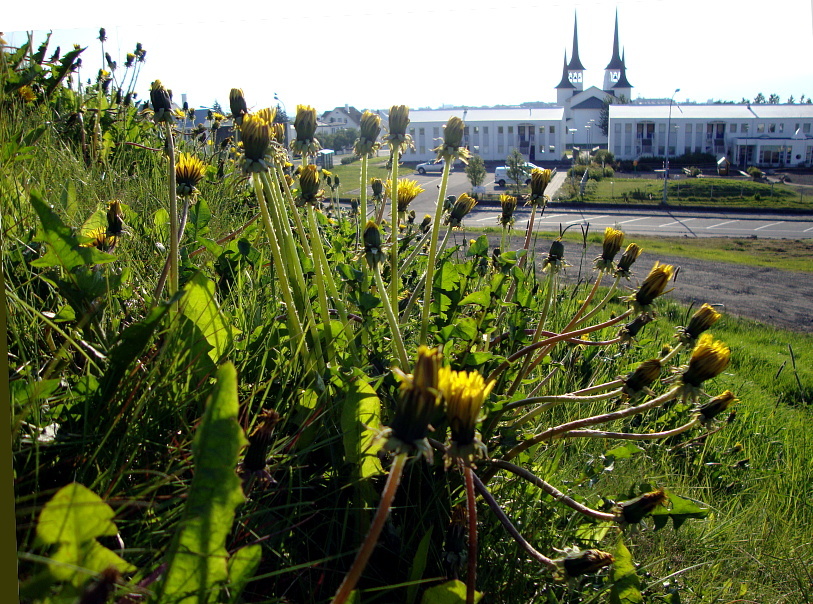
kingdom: Plantae
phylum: Tracheophyta
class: Magnoliopsida
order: Asterales
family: Asteraceae
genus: Taraxacum
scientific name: Taraxacum officinale
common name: Common dandelion
